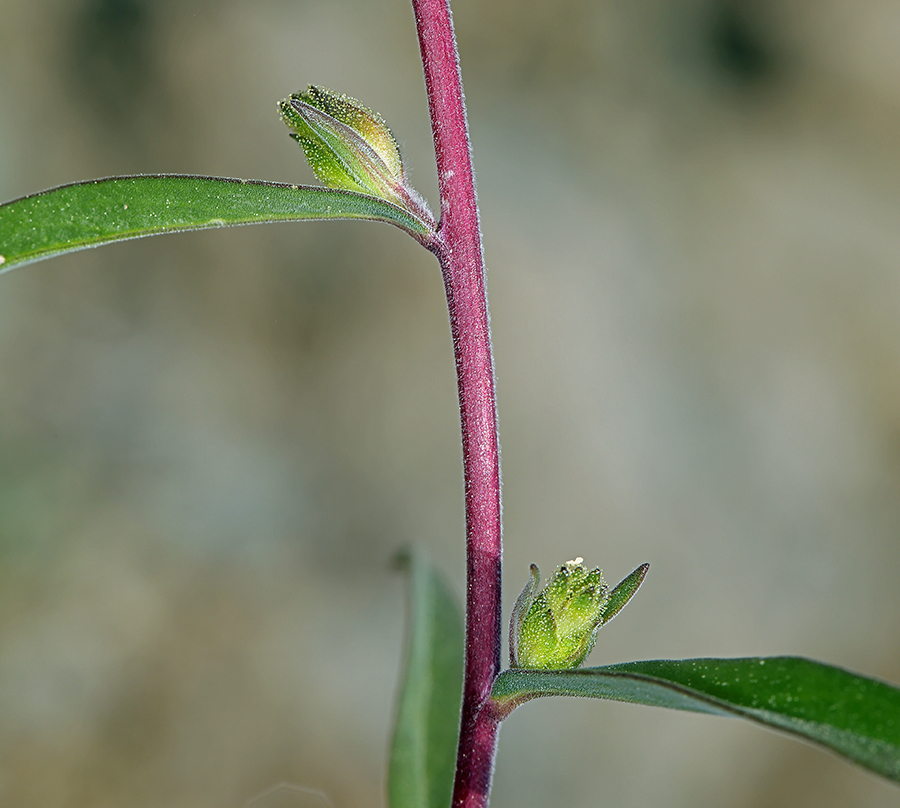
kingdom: Plantae
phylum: Tracheophyta
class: Magnoliopsida
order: Ericales
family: Polemoniaceae
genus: Collomia
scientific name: Collomia grandiflora
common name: California strawflower
